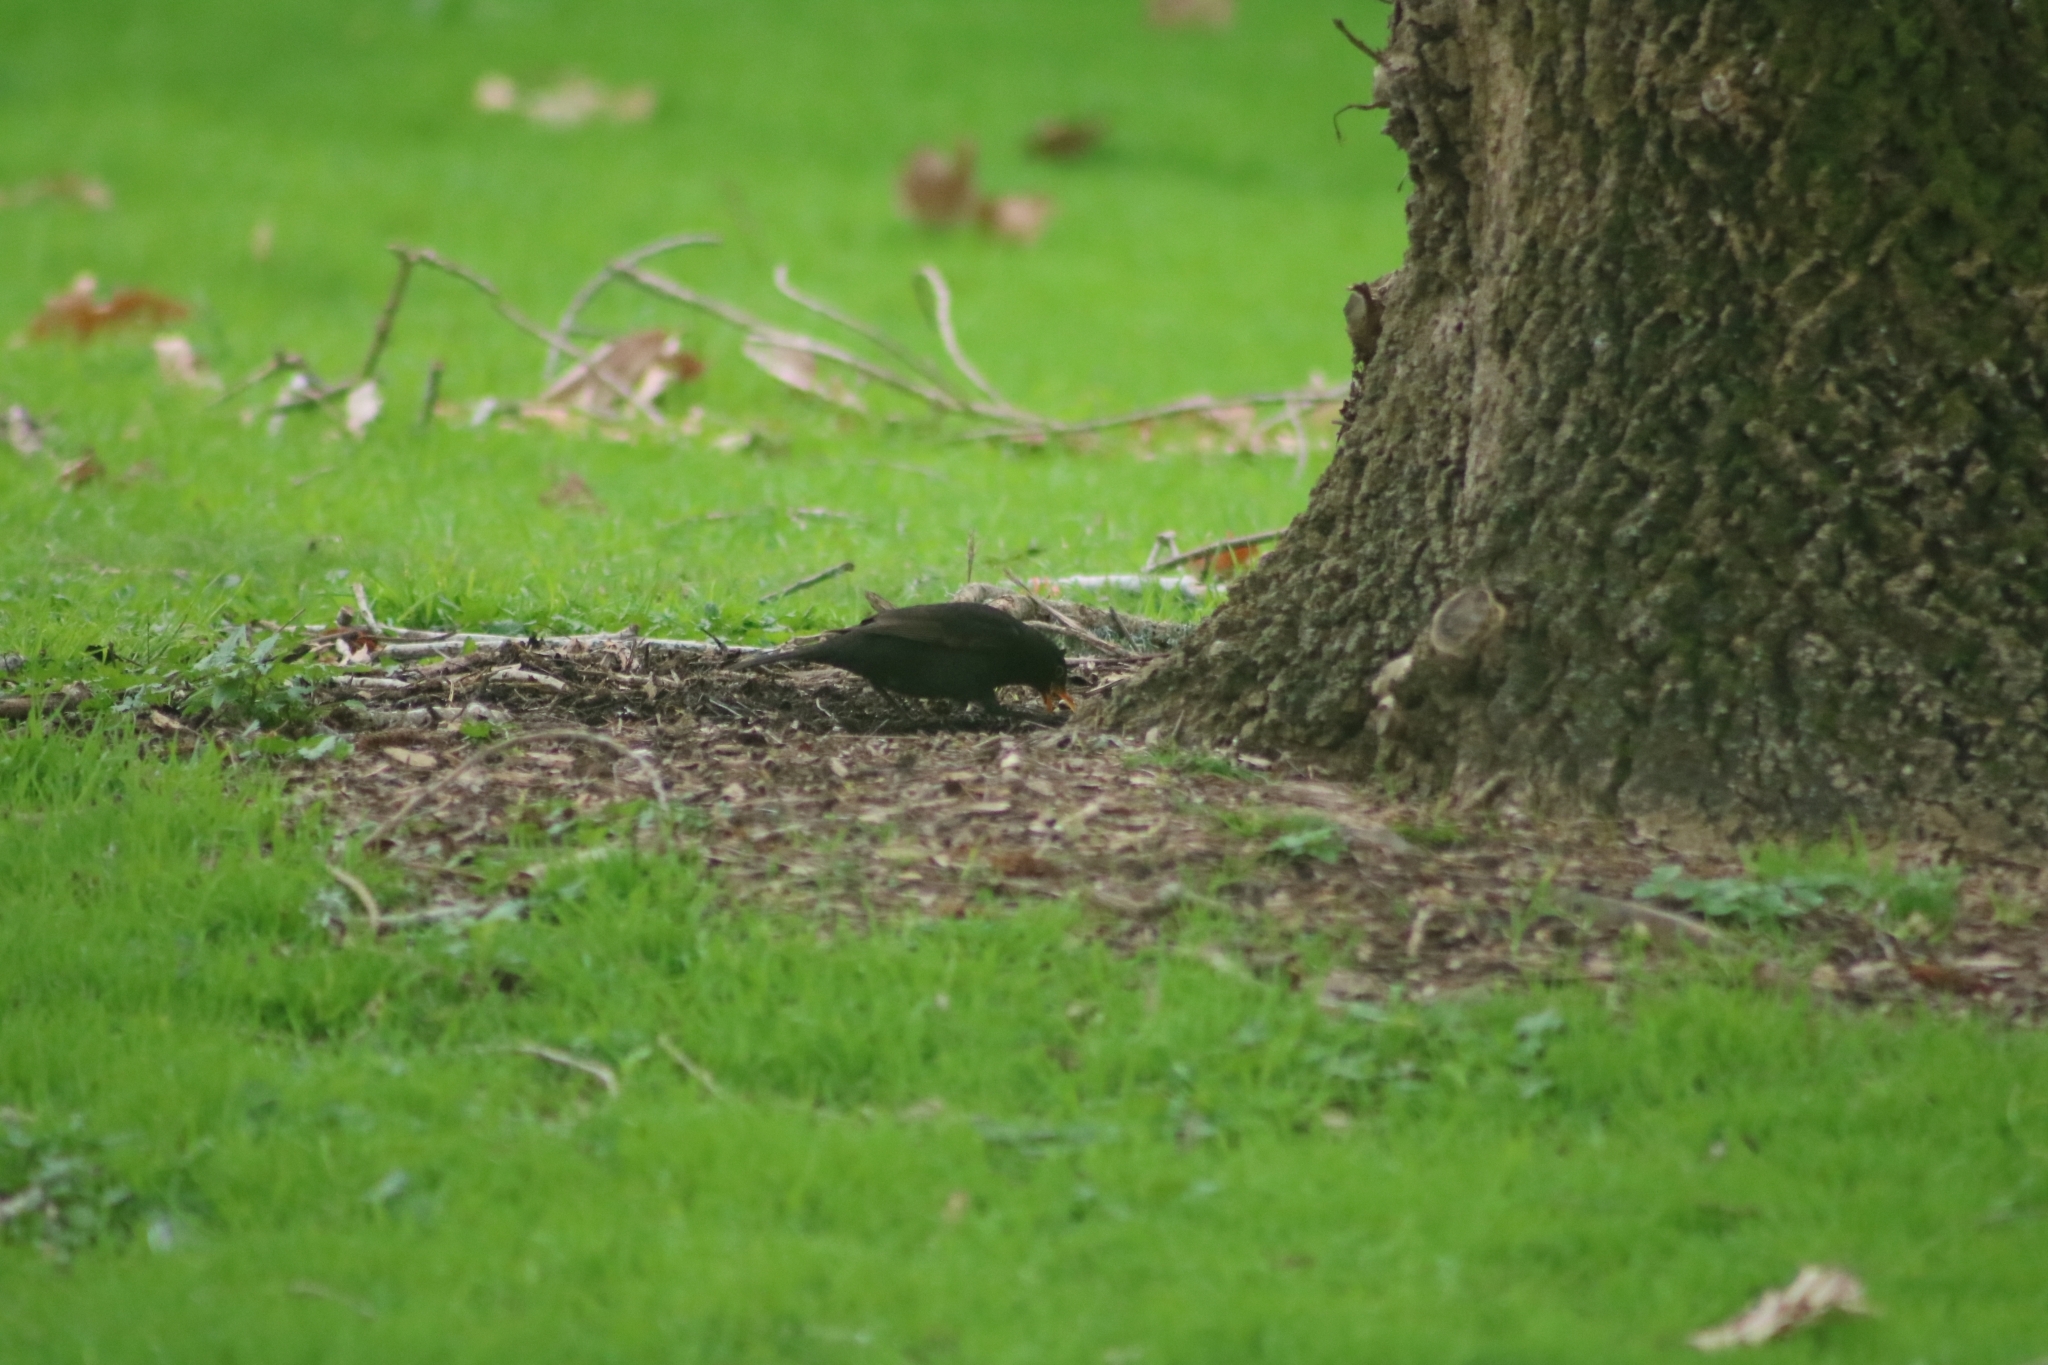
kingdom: Animalia
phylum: Chordata
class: Aves
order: Passeriformes
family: Turdidae
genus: Turdus
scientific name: Turdus merula
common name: Common blackbird
